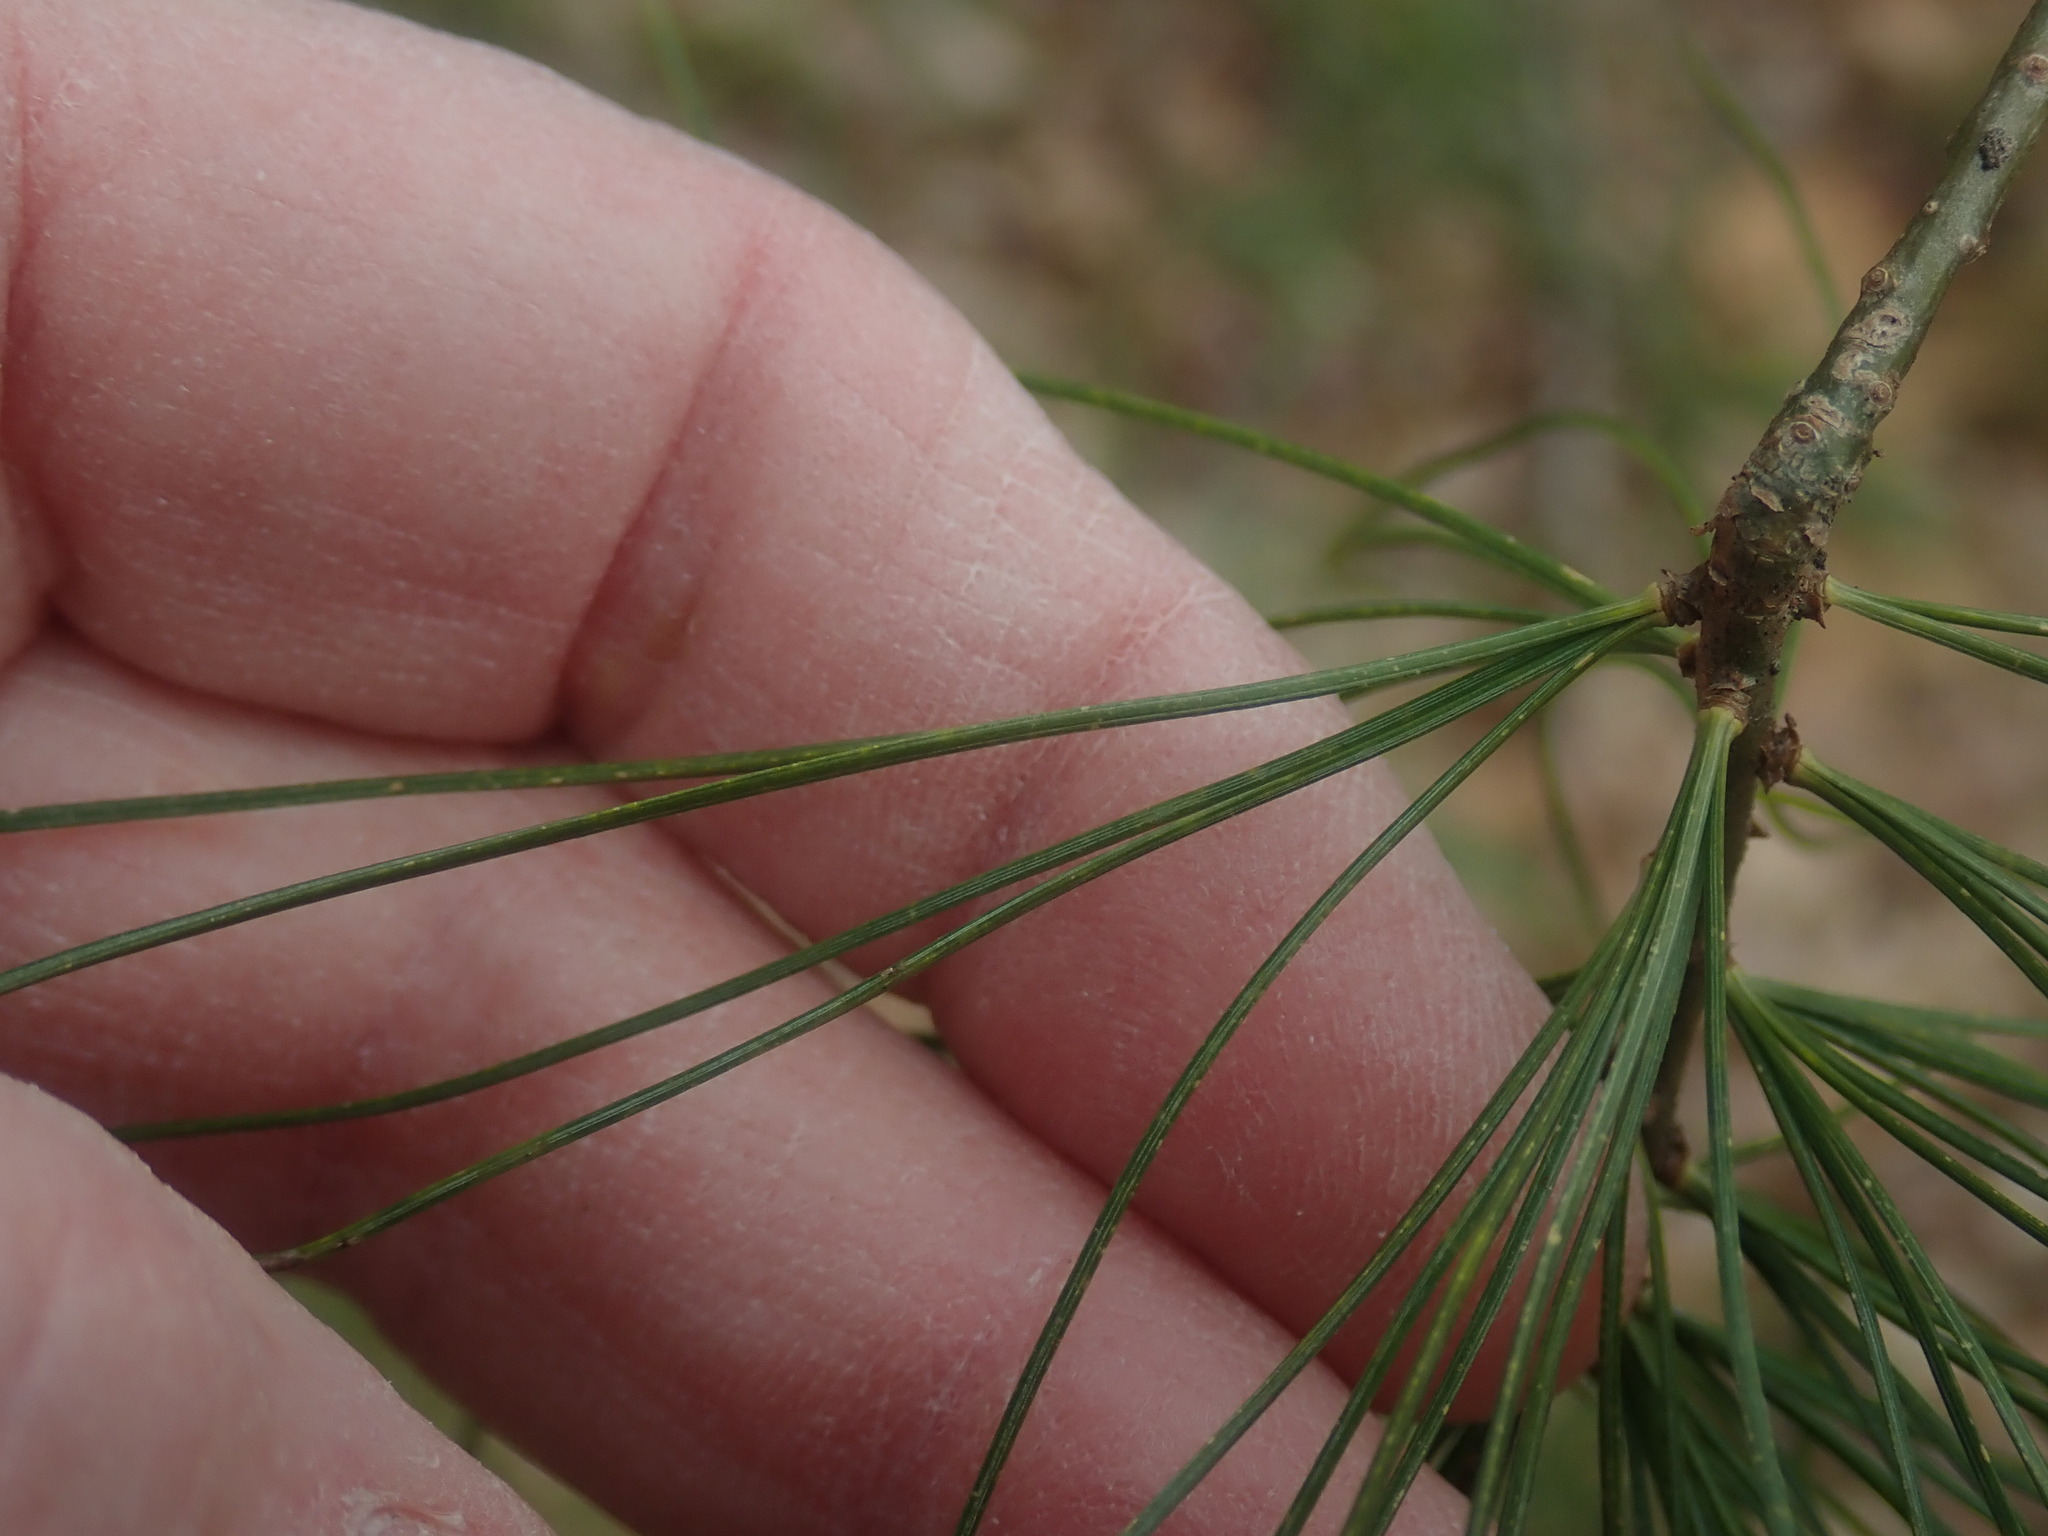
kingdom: Plantae
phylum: Tracheophyta
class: Pinopsida
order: Pinales
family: Pinaceae
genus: Pinus
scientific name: Pinus strobus
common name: Weymouth pine
